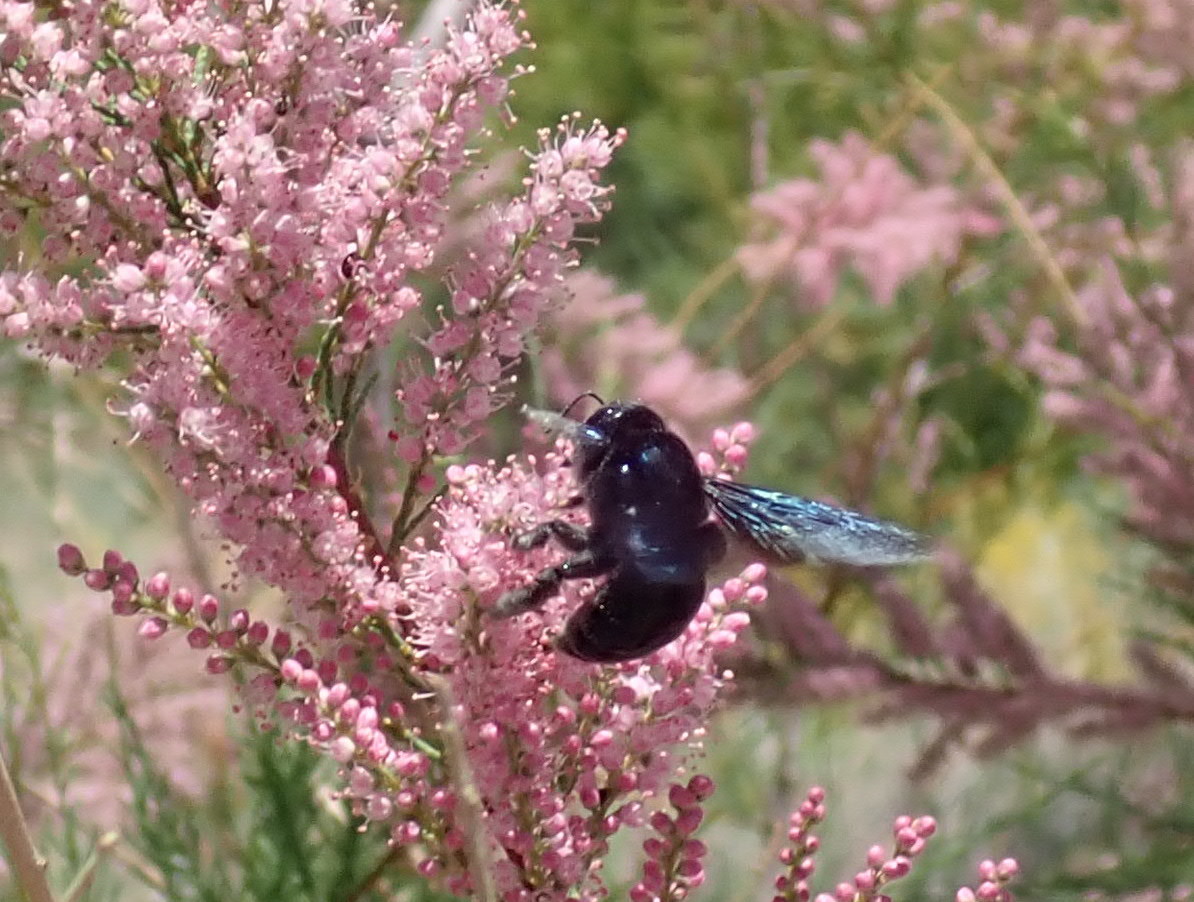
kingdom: Animalia
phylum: Arthropoda
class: Insecta
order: Hymenoptera
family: Apidae
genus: Xylocopa
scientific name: Xylocopa californica
